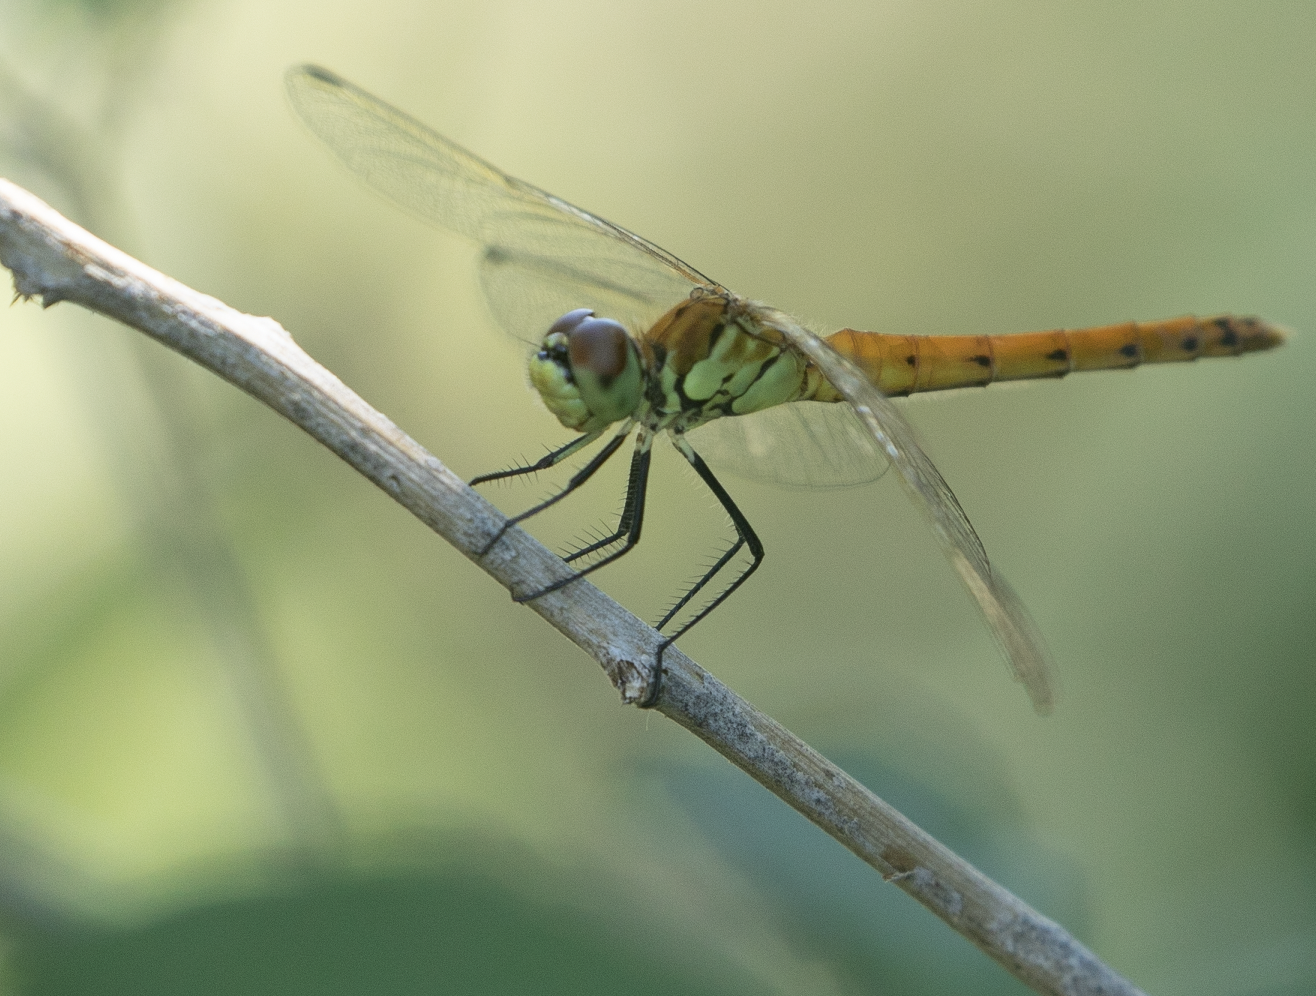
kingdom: Animalia
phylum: Arthropoda
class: Insecta
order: Odonata
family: Libellulidae
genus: Sympetrum
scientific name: Sympetrum depressiusculum
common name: Spotted darter
